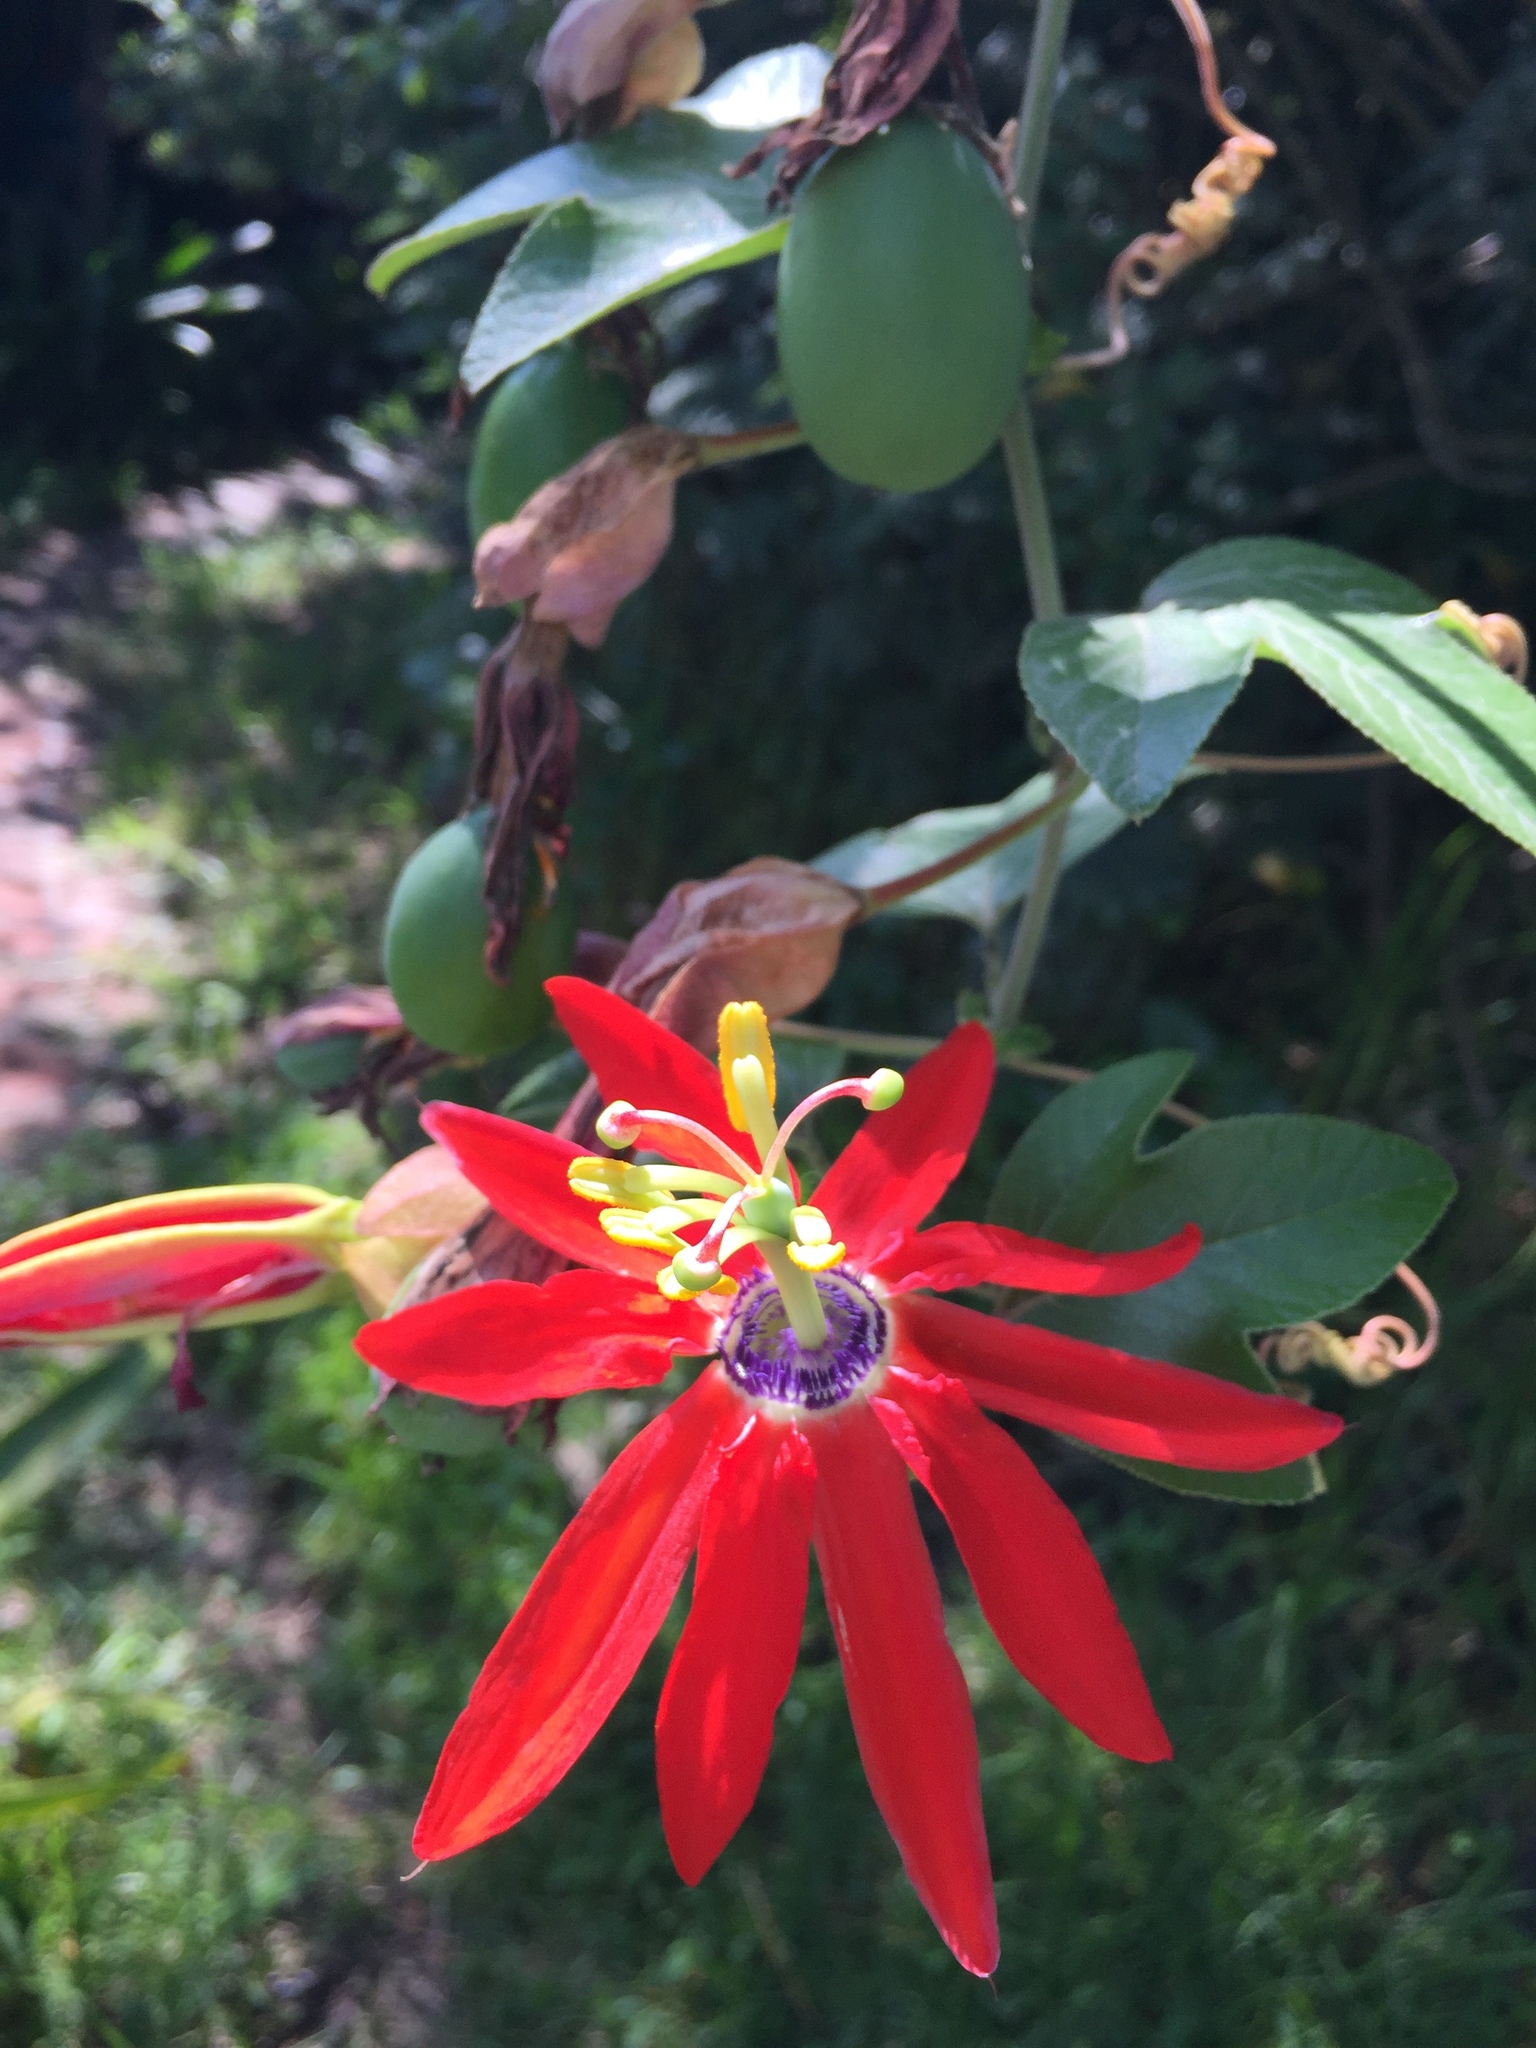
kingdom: Plantae
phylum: Tracheophyta
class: Magnoliopsida
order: Malpighiales
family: Passifloraceae
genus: Passiflora
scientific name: Passiflora manicata
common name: Red passionflower
